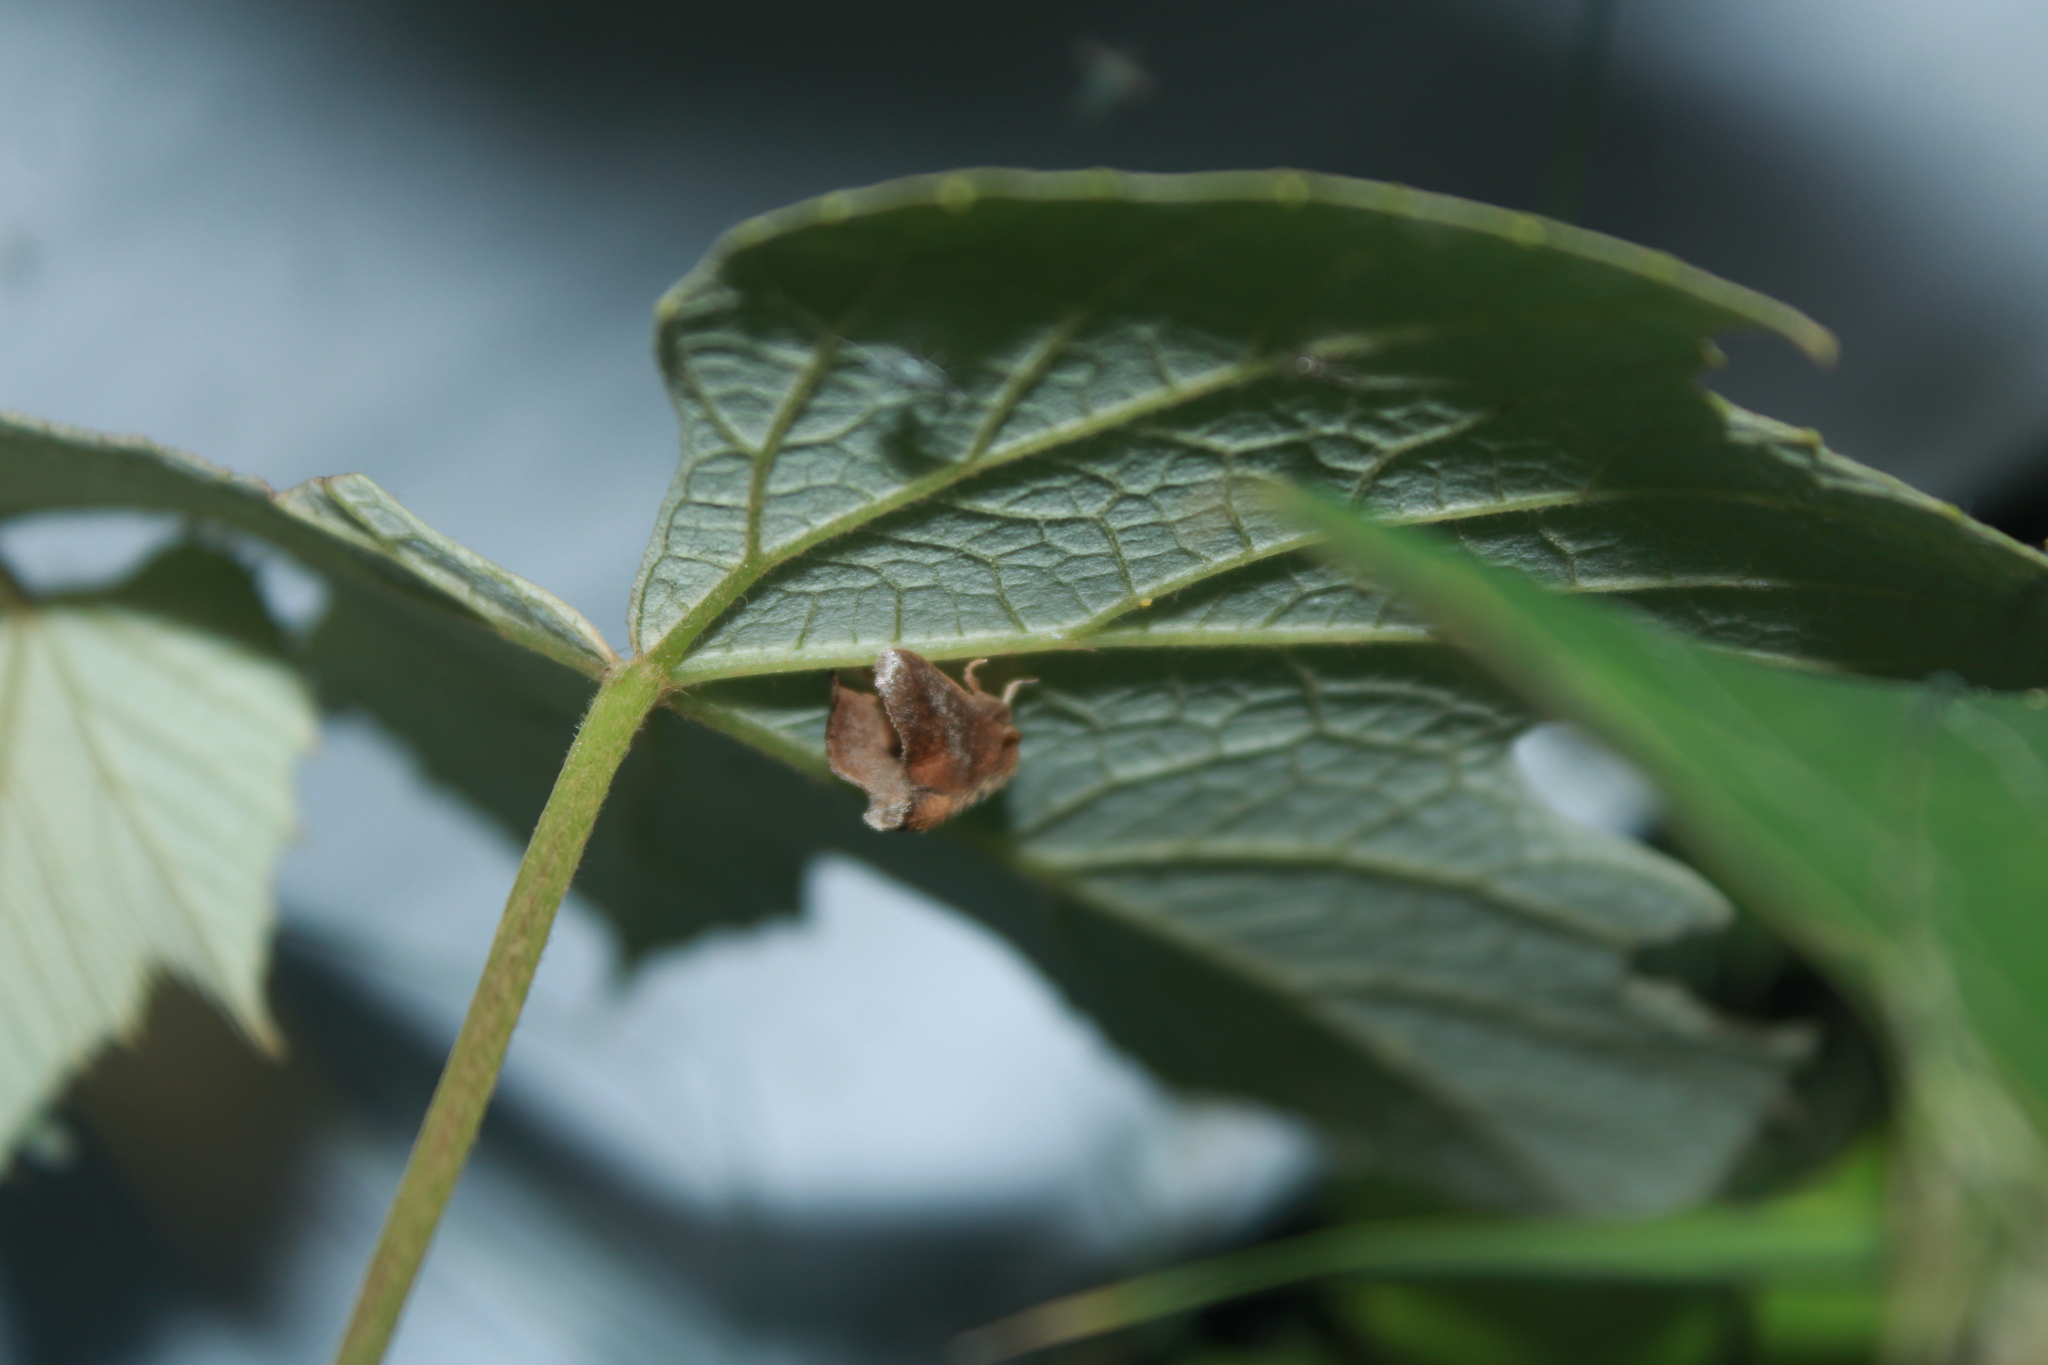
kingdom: Animalia
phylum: Arthropoda
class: Insecta
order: Lepidoptera
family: Limacodidae
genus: Isa
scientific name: Isa textula
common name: Crowned slug moth
